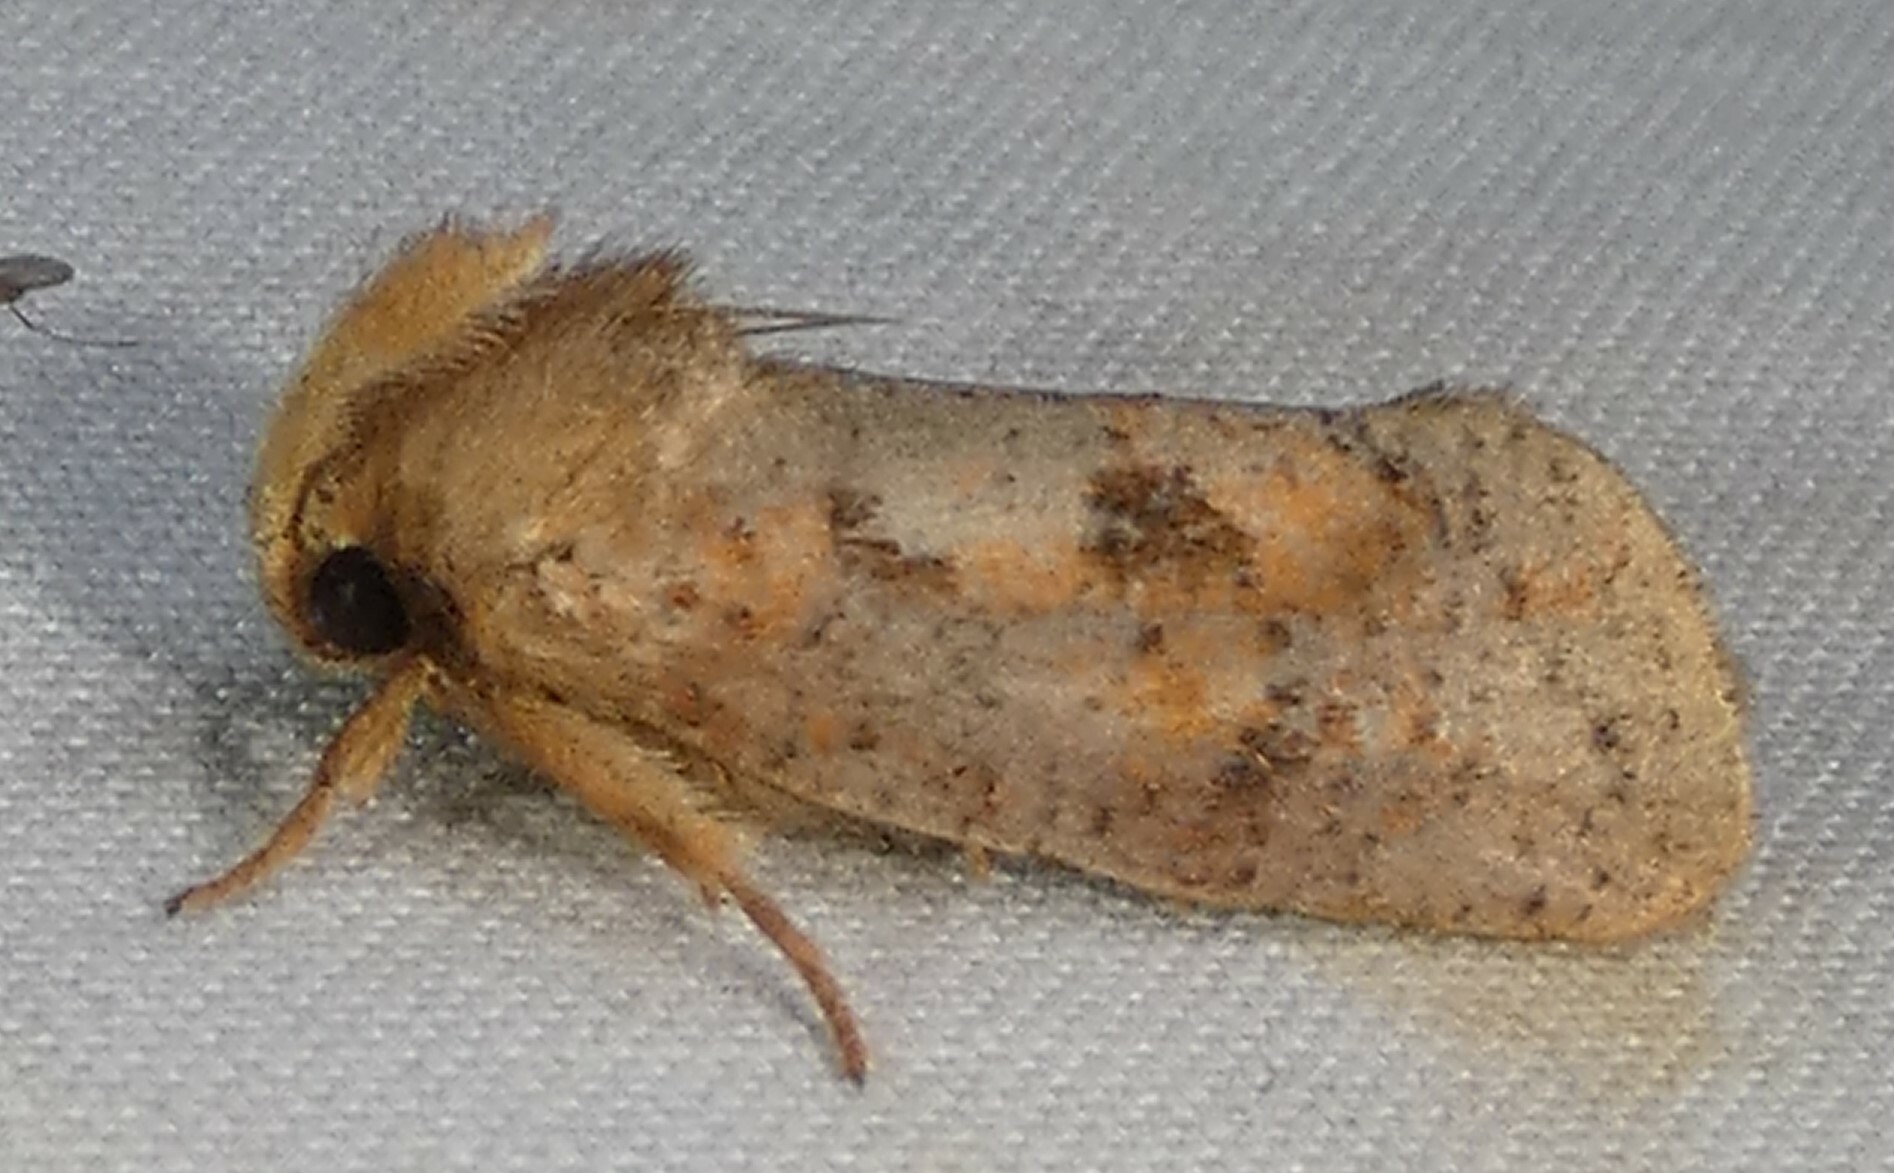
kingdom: Animalia
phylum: Arthropoda
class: Insecta
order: Lepidoptera
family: Tineidae
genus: Acrolophus
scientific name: Acrolophus plumifrontella
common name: Eastern grass tubeworm moth
